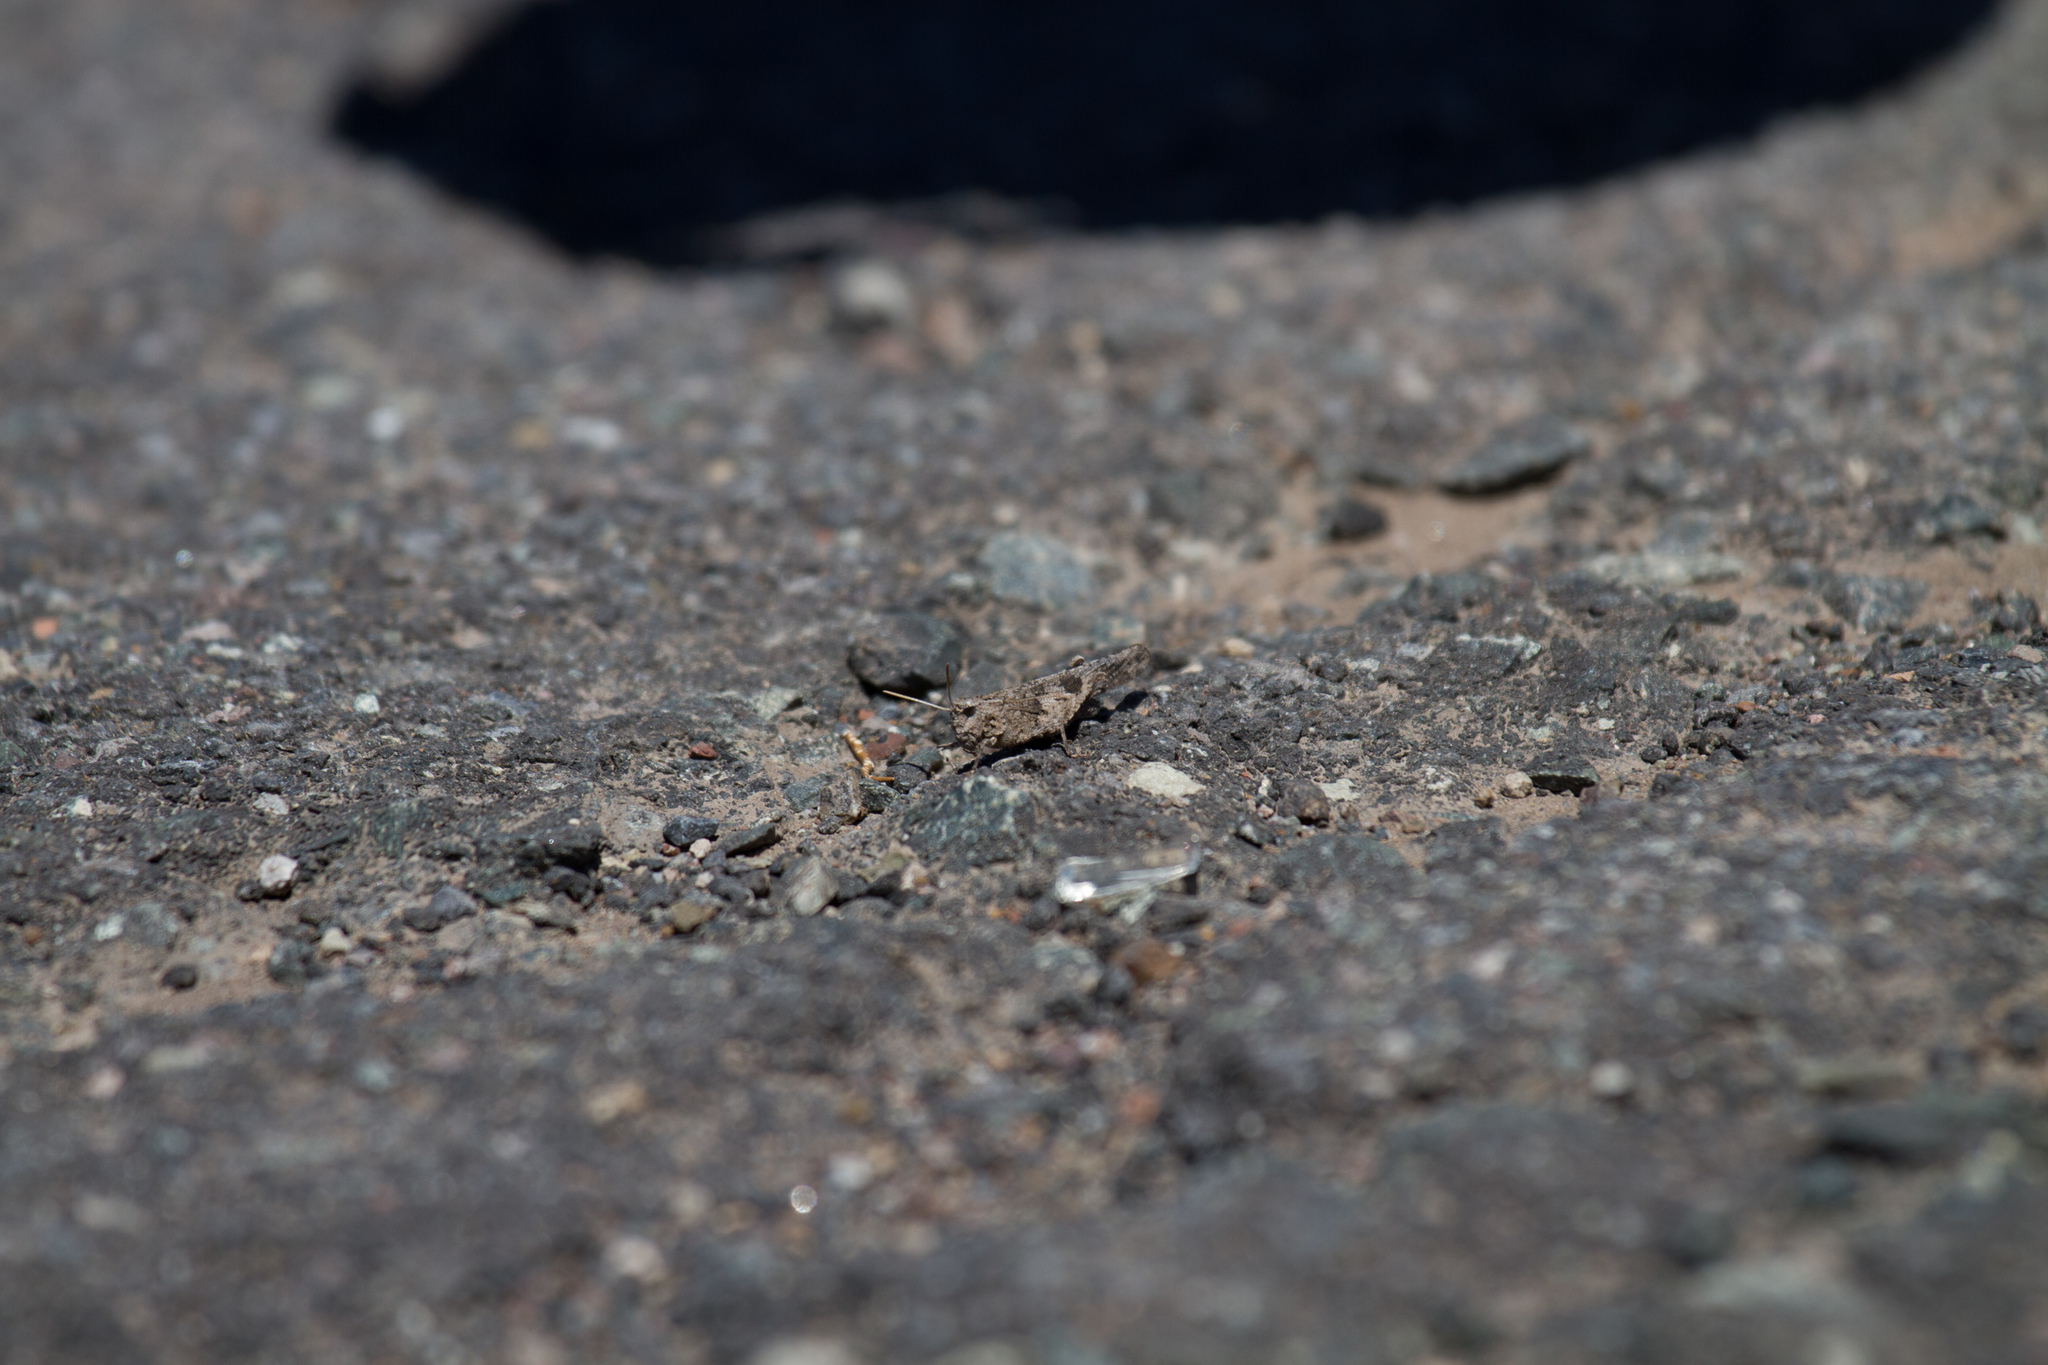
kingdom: Animalia
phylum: Arthropoda
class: Insecta
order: Orthoptera
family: Acrididae
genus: Oedipoda
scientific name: Oedipoda canariensis
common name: Canarian band-winged grasshopper
